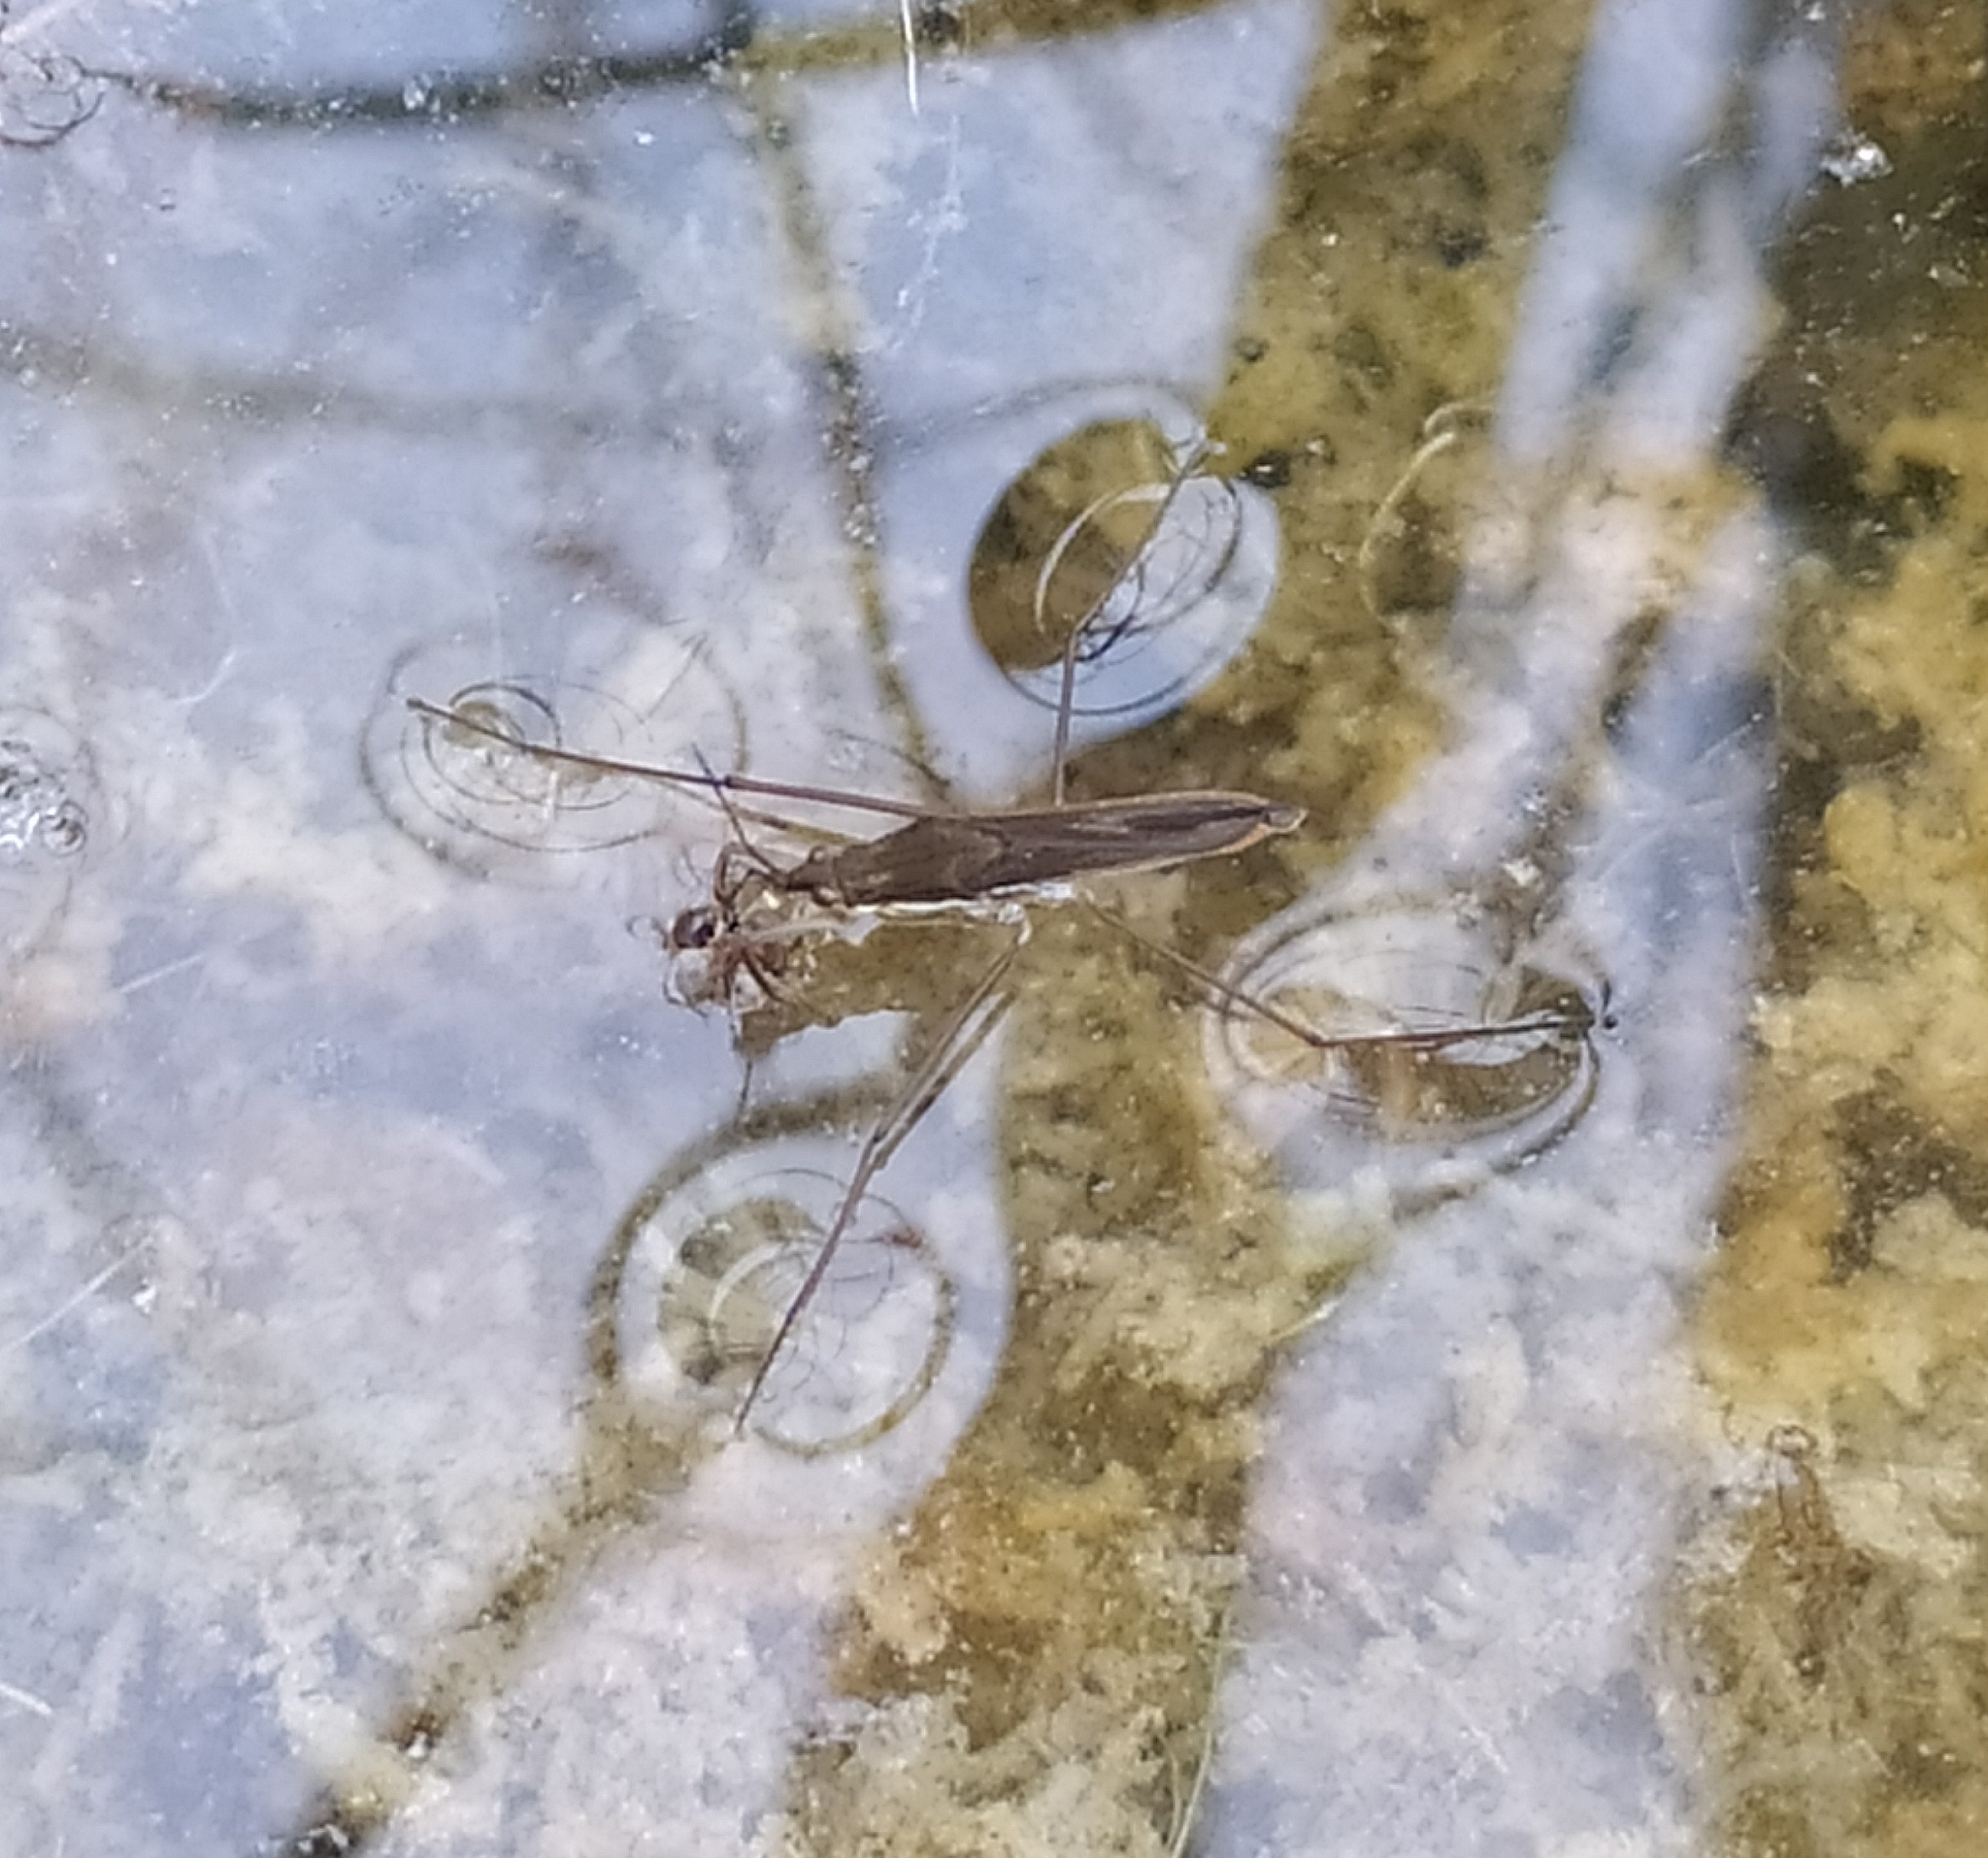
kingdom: Animalia
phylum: Arthropoda
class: Insecta
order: Hemiptera
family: Gerridae
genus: Gerris
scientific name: Gerris
